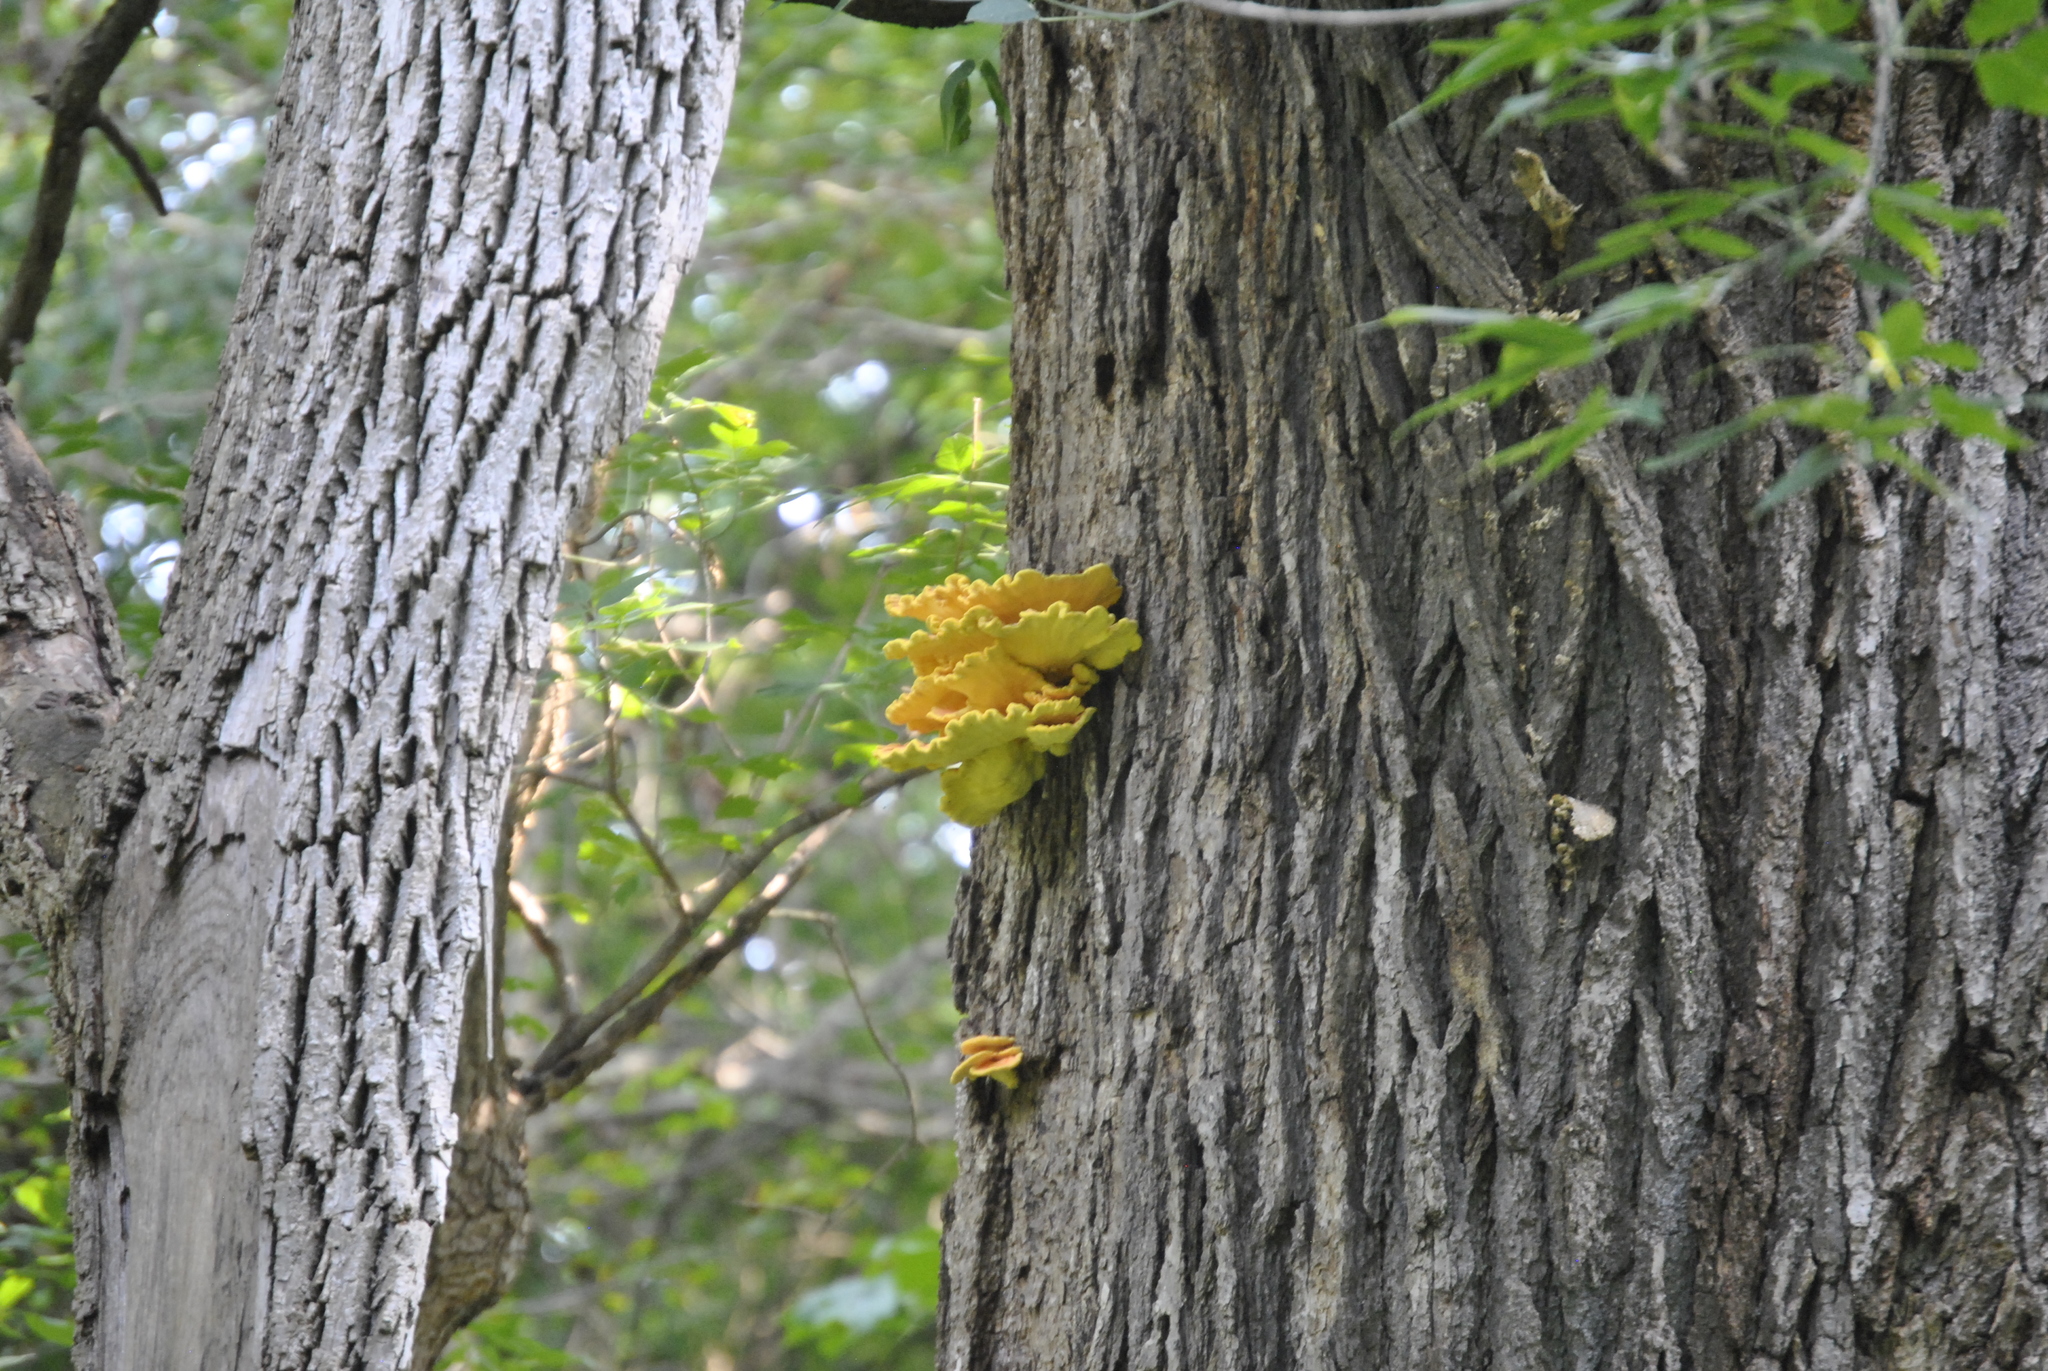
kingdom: Fungi
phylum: Basidiomycota
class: Agaricomycetes
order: Polyporales
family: Laetiporaceae
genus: Laetiporus
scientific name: Laetiporus sulphureus
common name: Chicken of the woods
